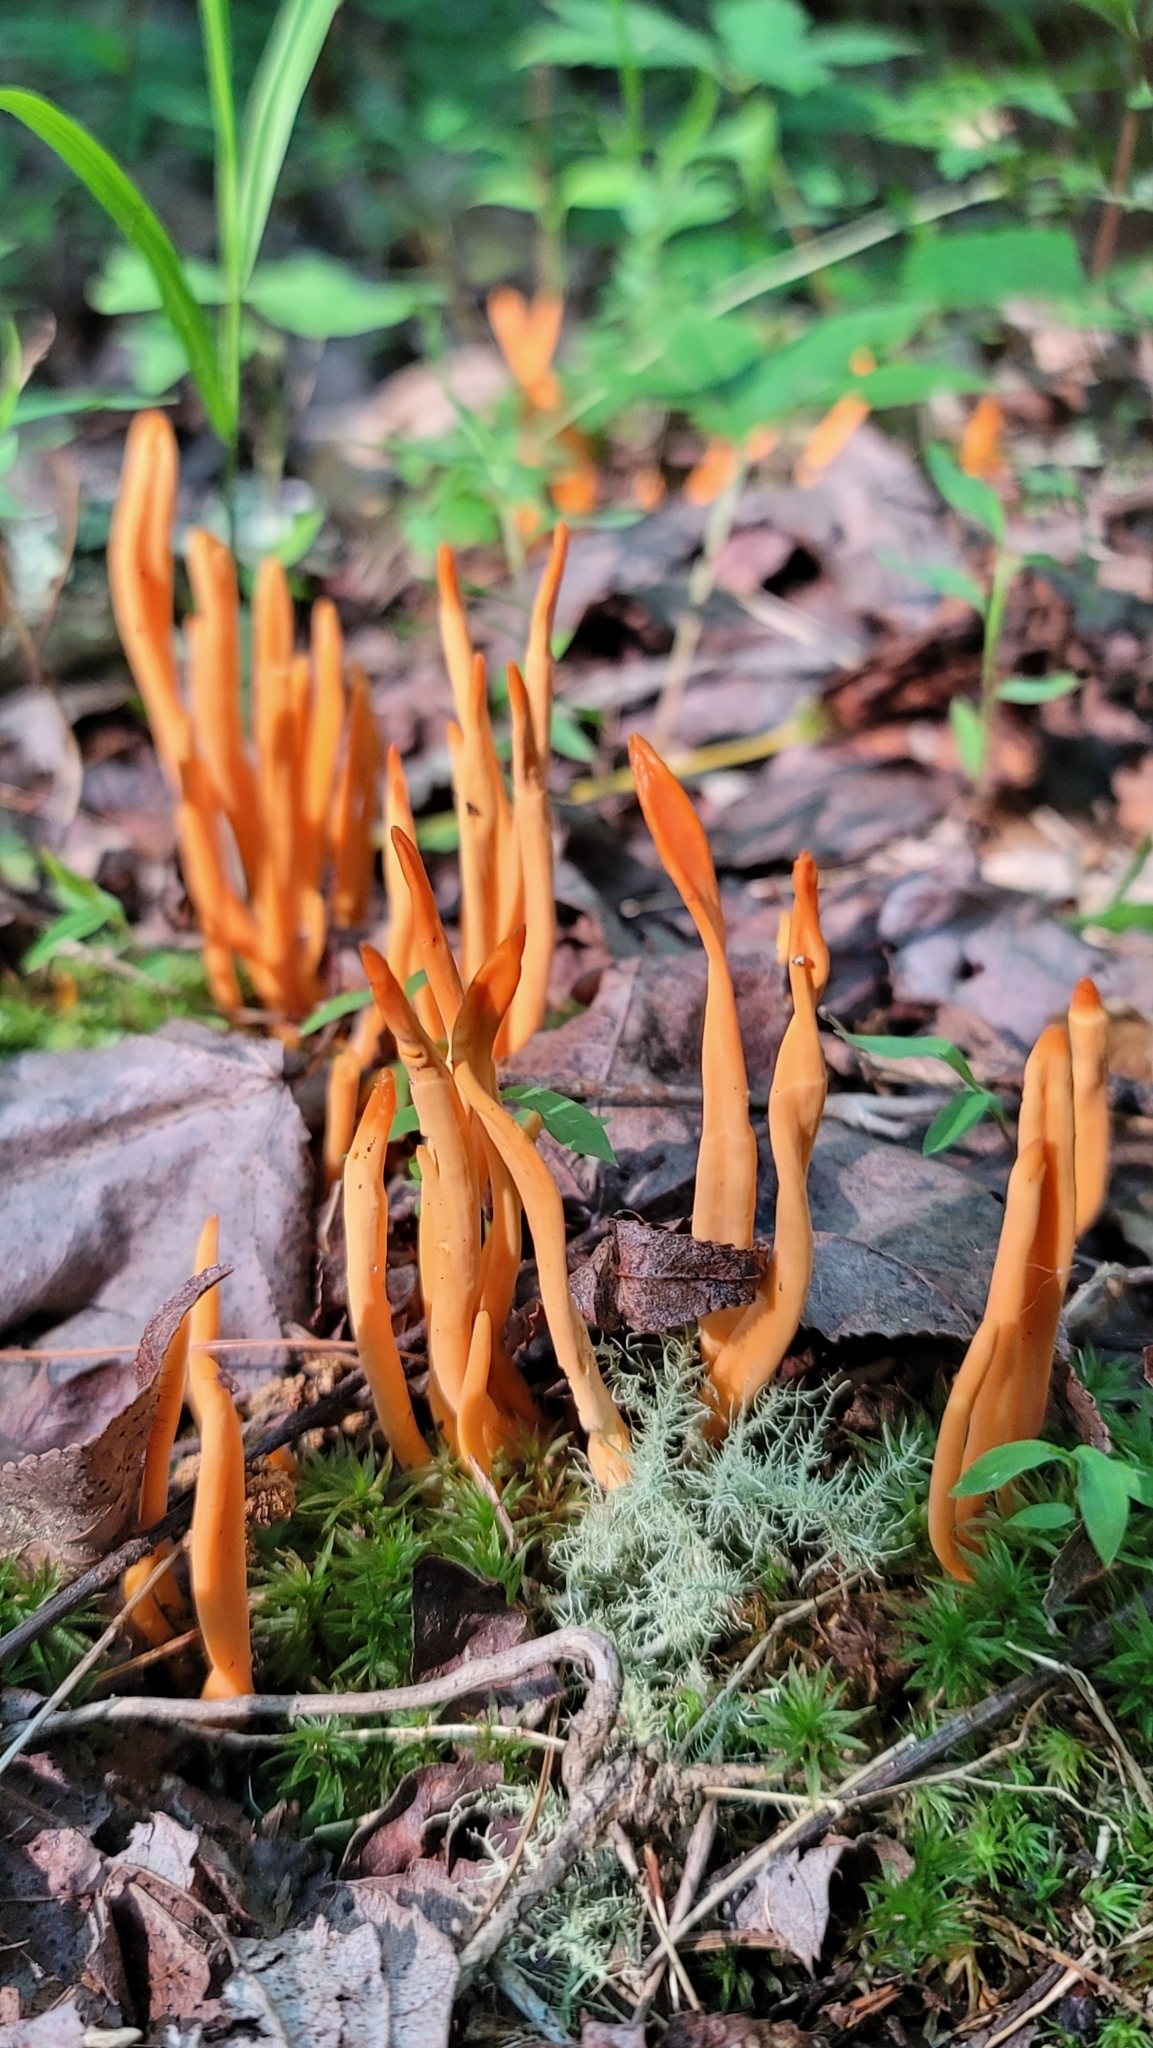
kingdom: Fungi
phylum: Basidiomycota
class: Agaricomycetes
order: Agaricales
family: Clavariaceae
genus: Clavulinopsis
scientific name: Clavulinopsis aurantiocinnabarina
